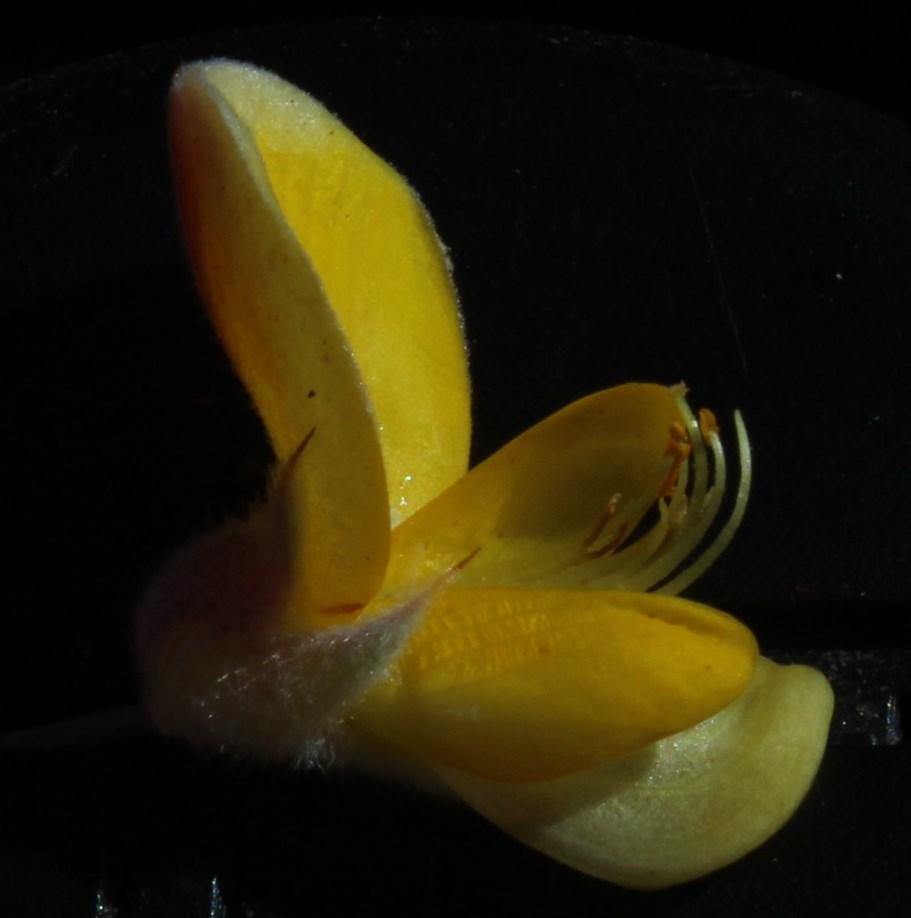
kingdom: Plantae
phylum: Tracheophyta
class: Magnoliopsida
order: Fabales
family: Fabaceae
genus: Aspalathus
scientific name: Aspalathus hystrix
